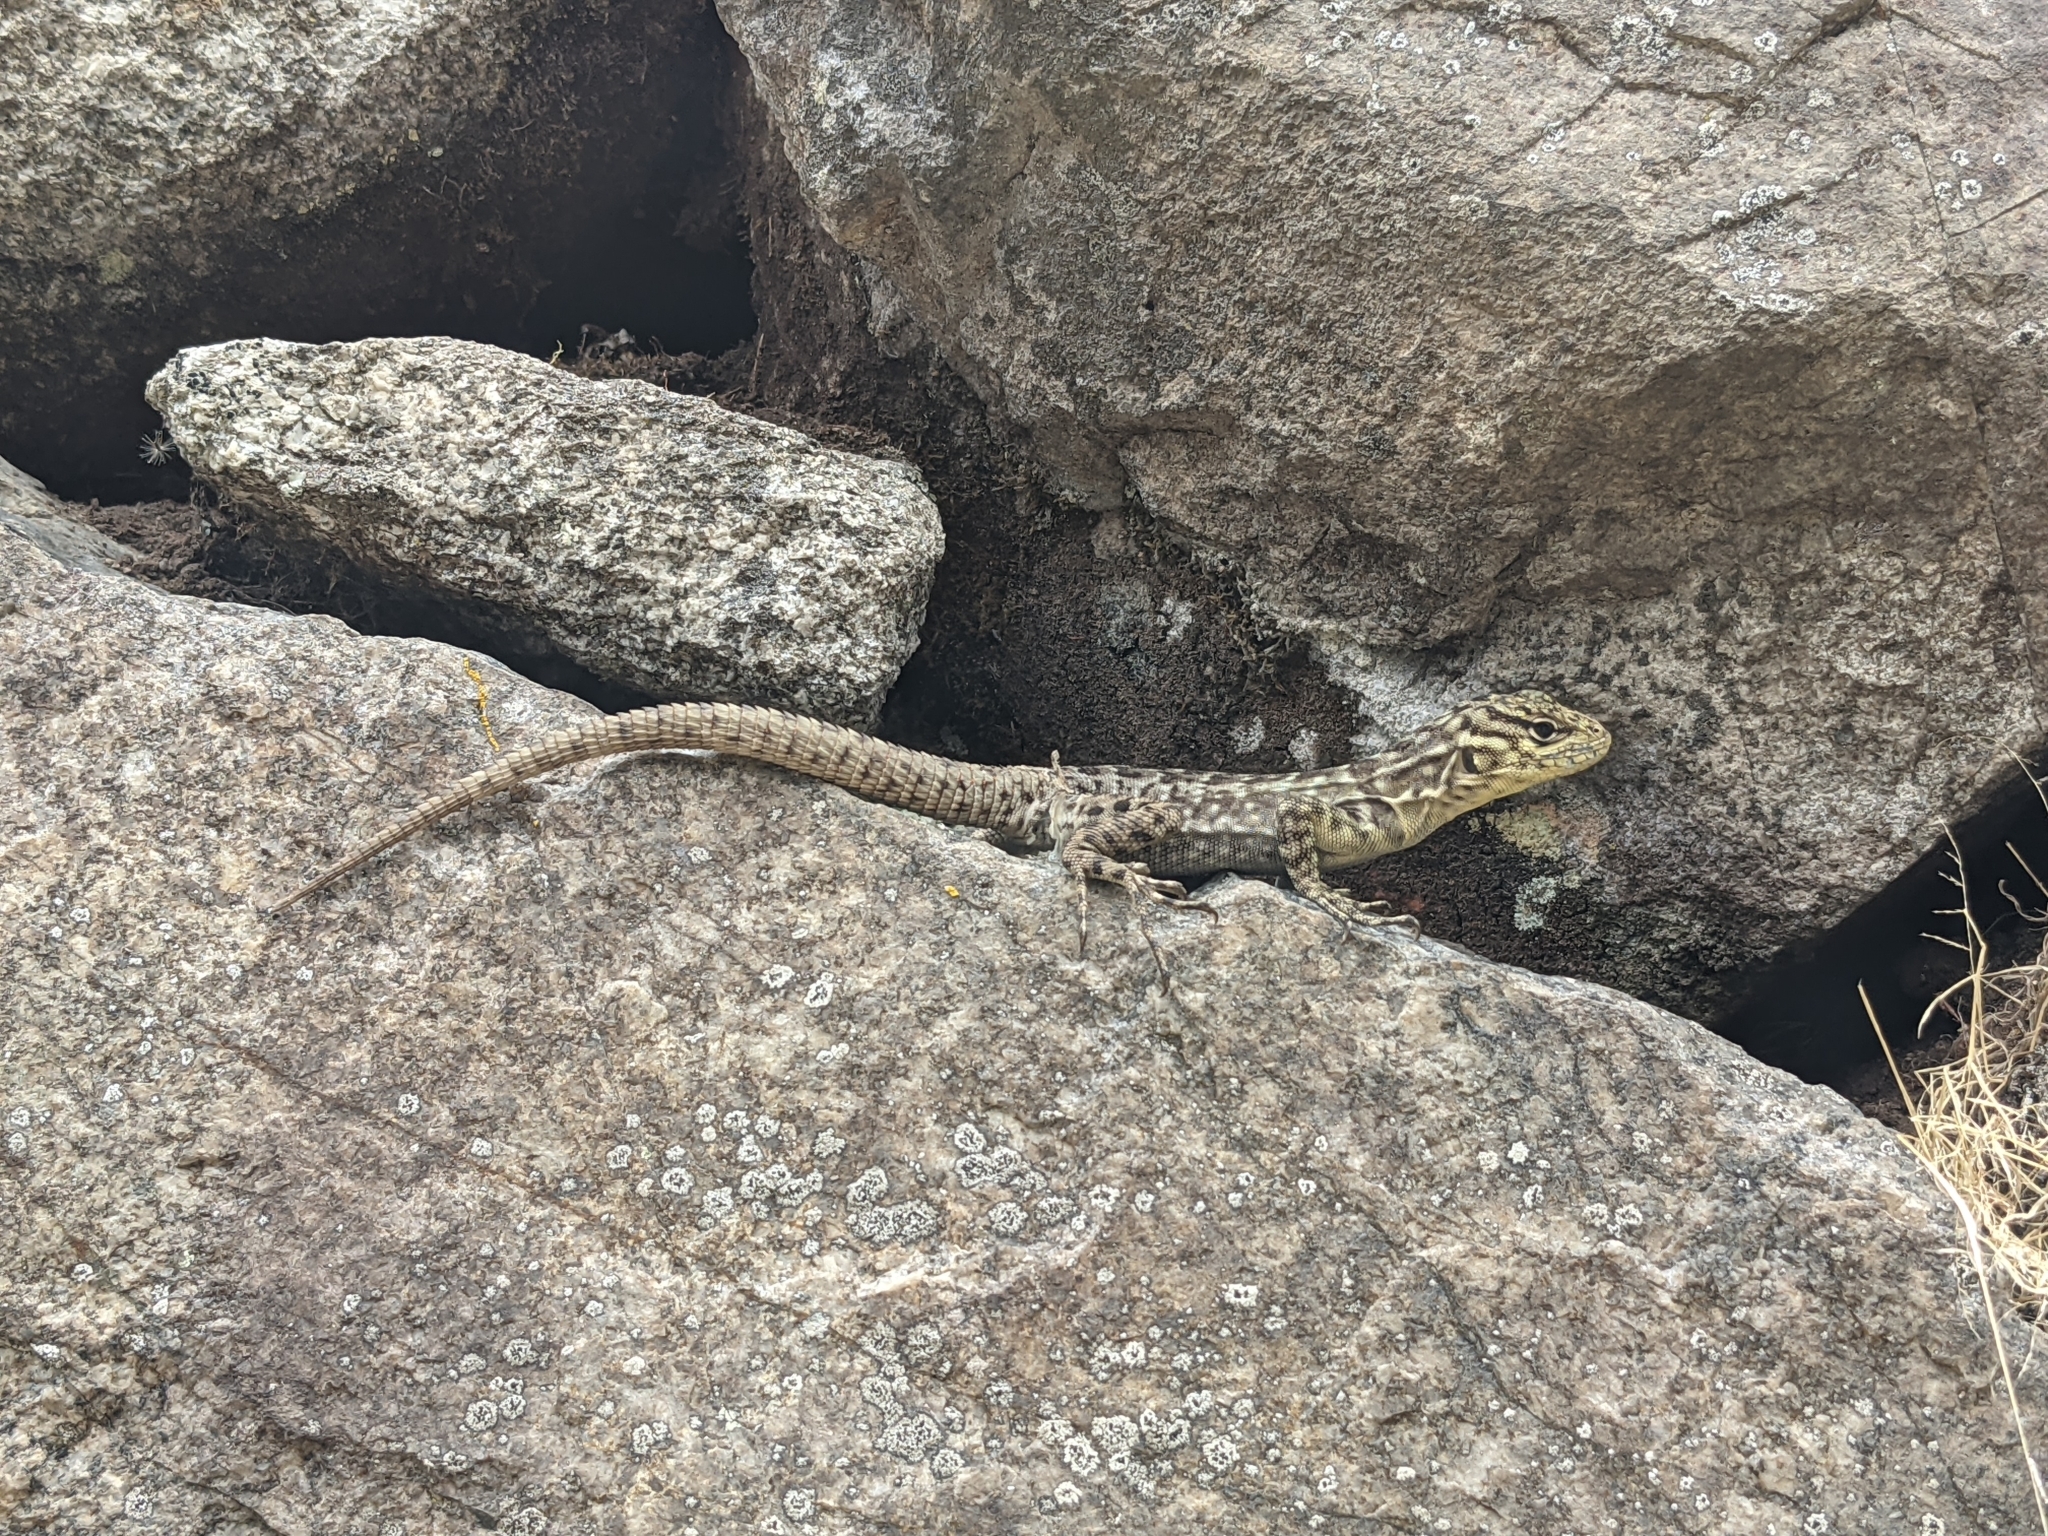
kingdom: Animalia
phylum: Chordata
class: Squamata
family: Tropiduridae
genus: Stenocercus
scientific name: Stenocercus crassicaudatus
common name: Spiny whorltail iguana
